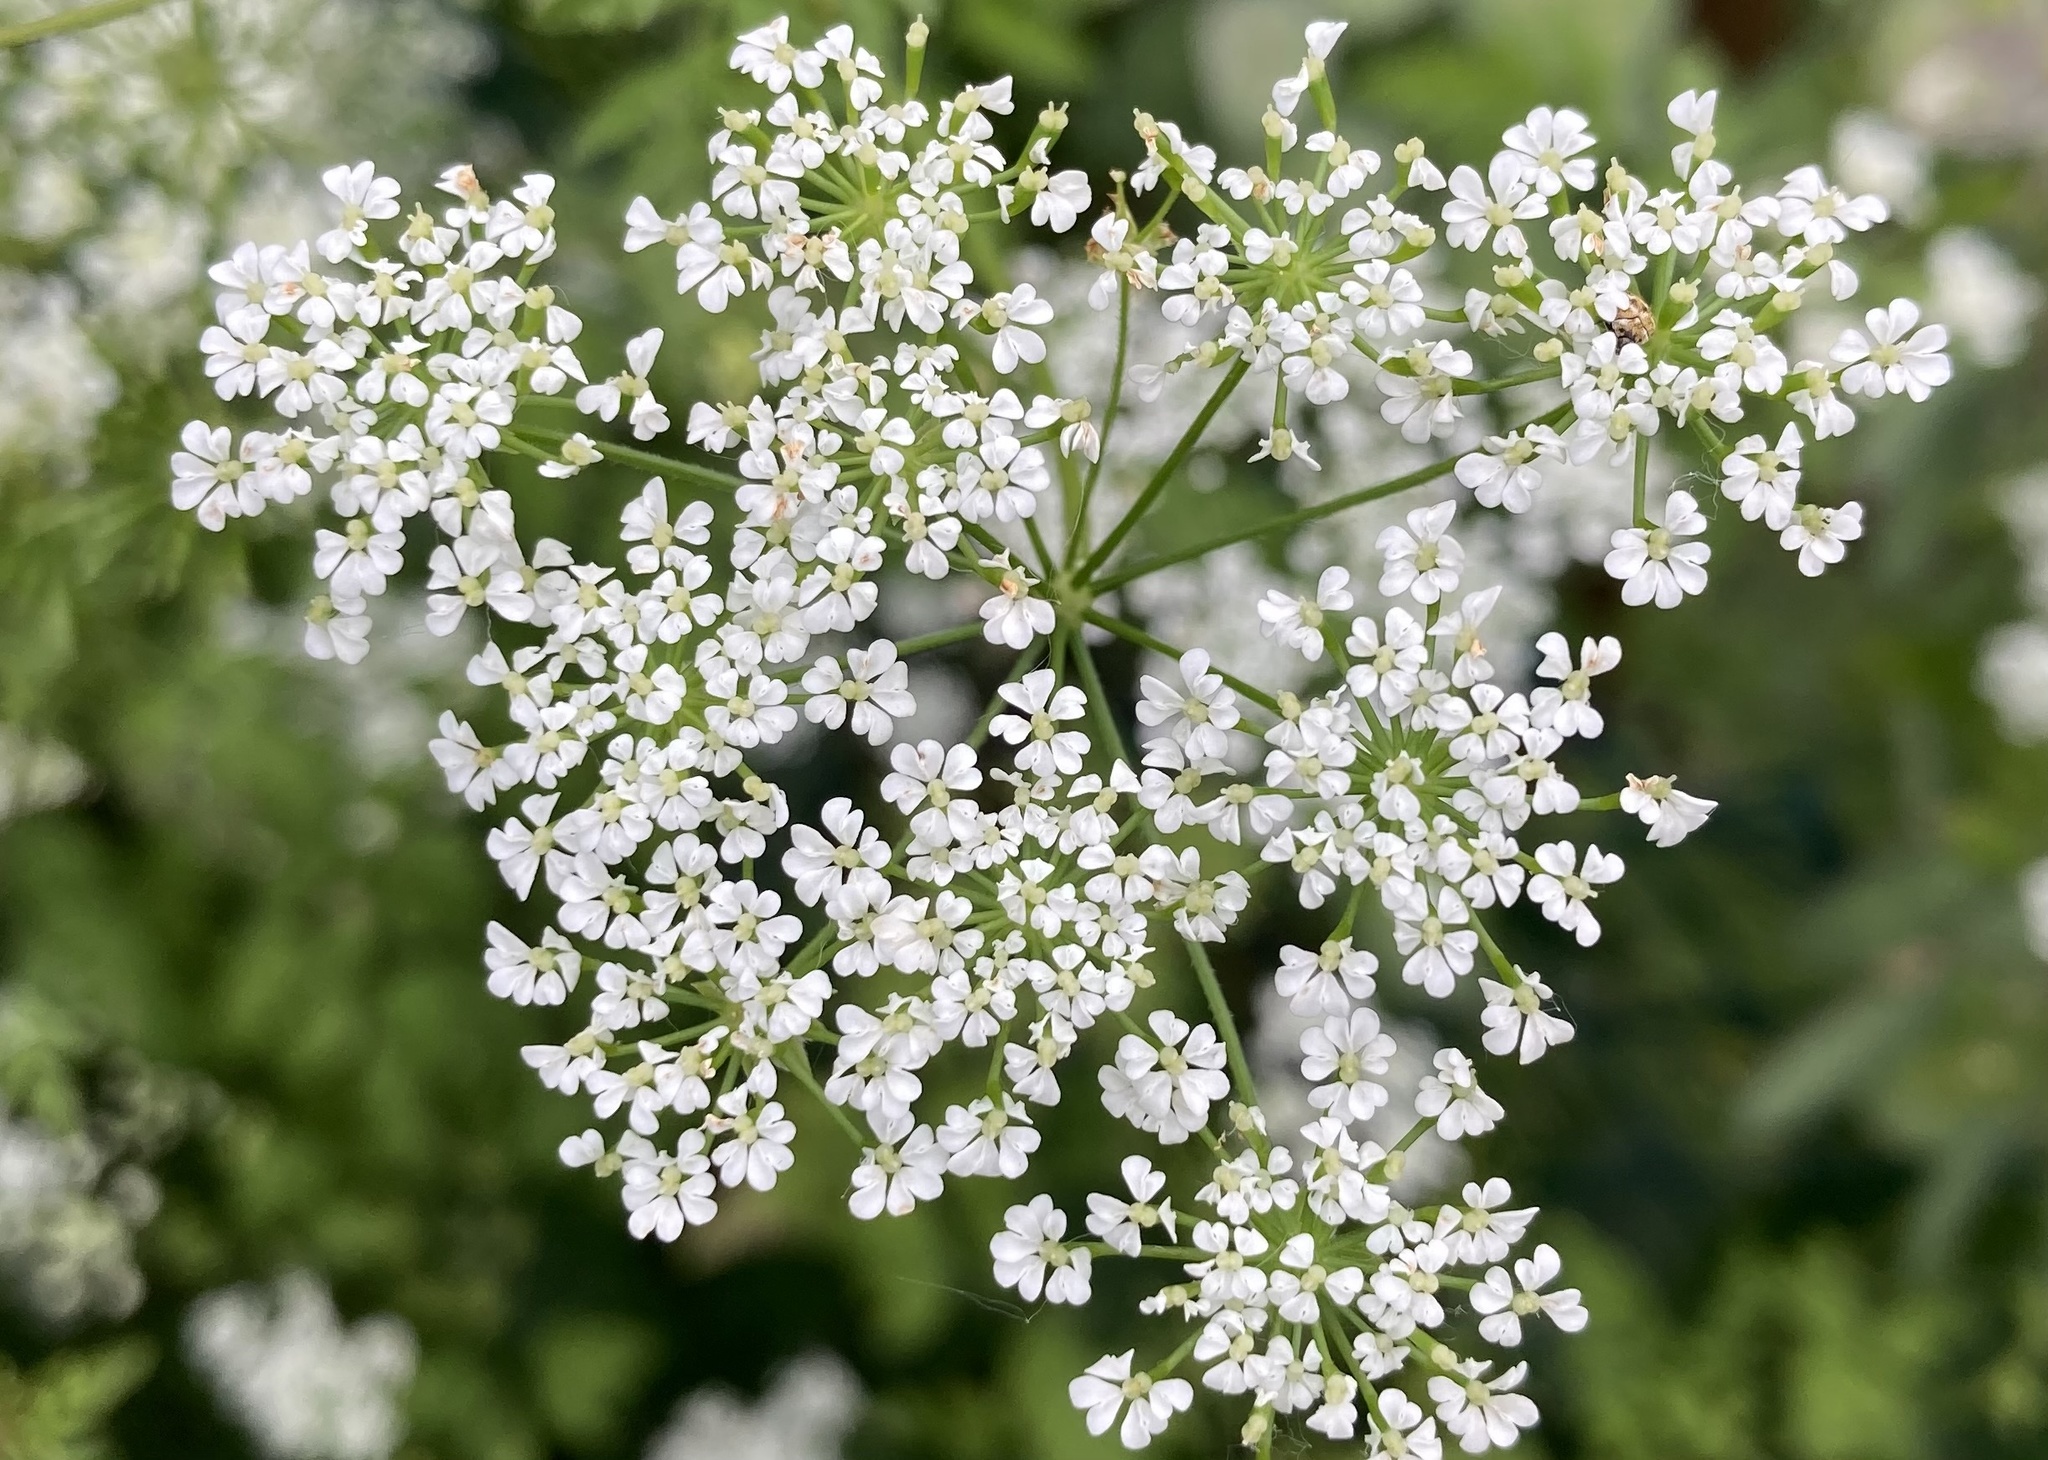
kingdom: Plantae
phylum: Tracheophyta
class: Magnoliopsida
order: Apiales
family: Apiaceae
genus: Chaerophyllum
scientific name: Chaerophyllum temulum
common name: Rough chervil
